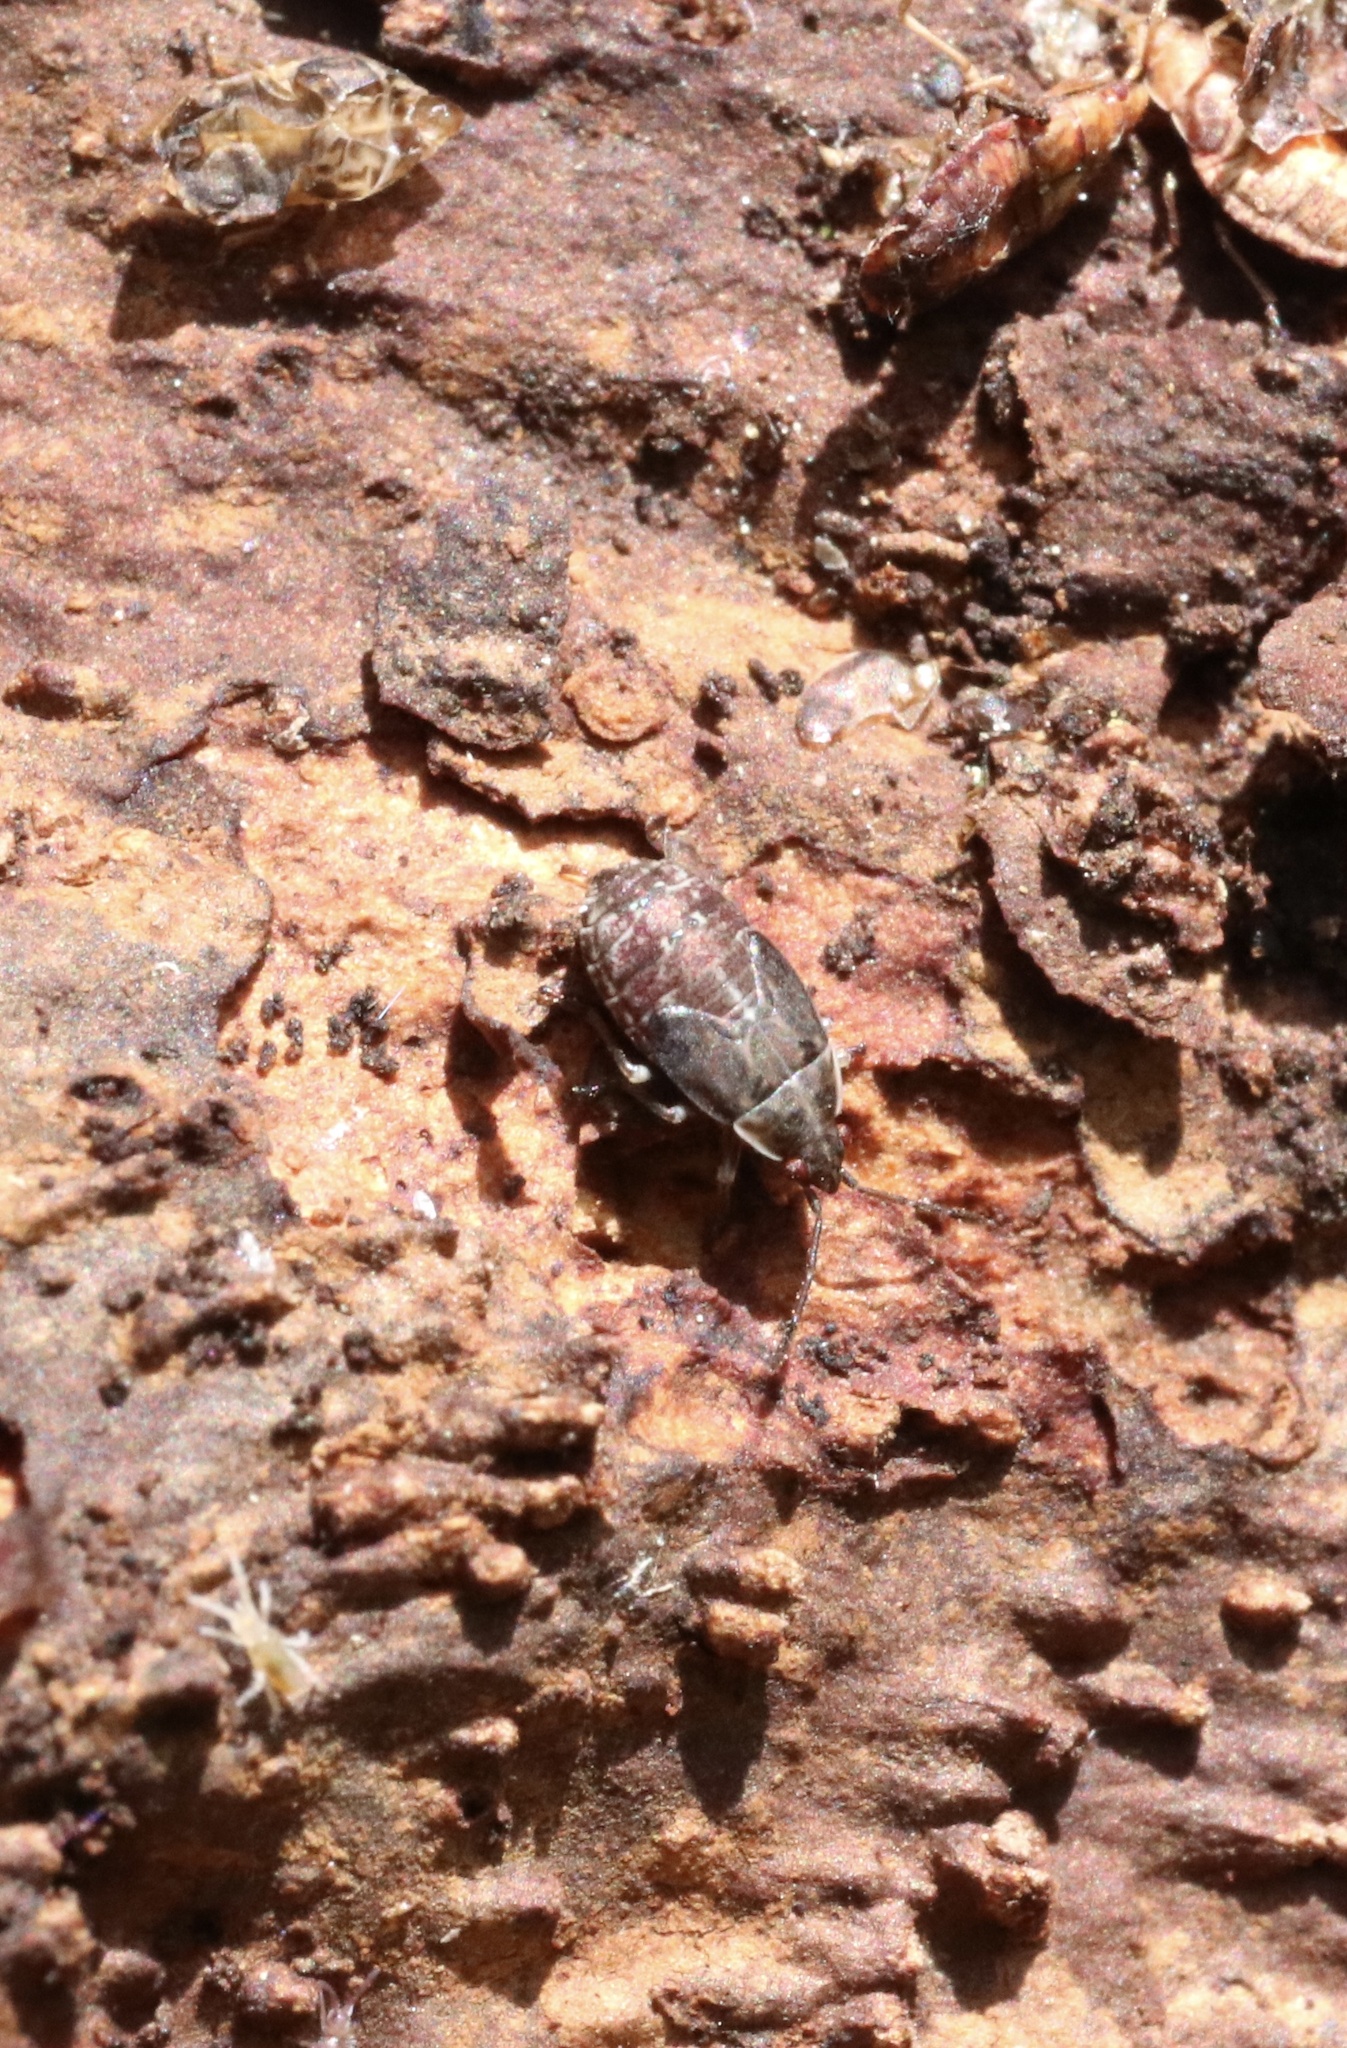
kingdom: Animalia
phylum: Arthropoda
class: Insecta
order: Hemiptera
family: Idiostolidae
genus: Idiostolus
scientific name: Idiostolus insularis
